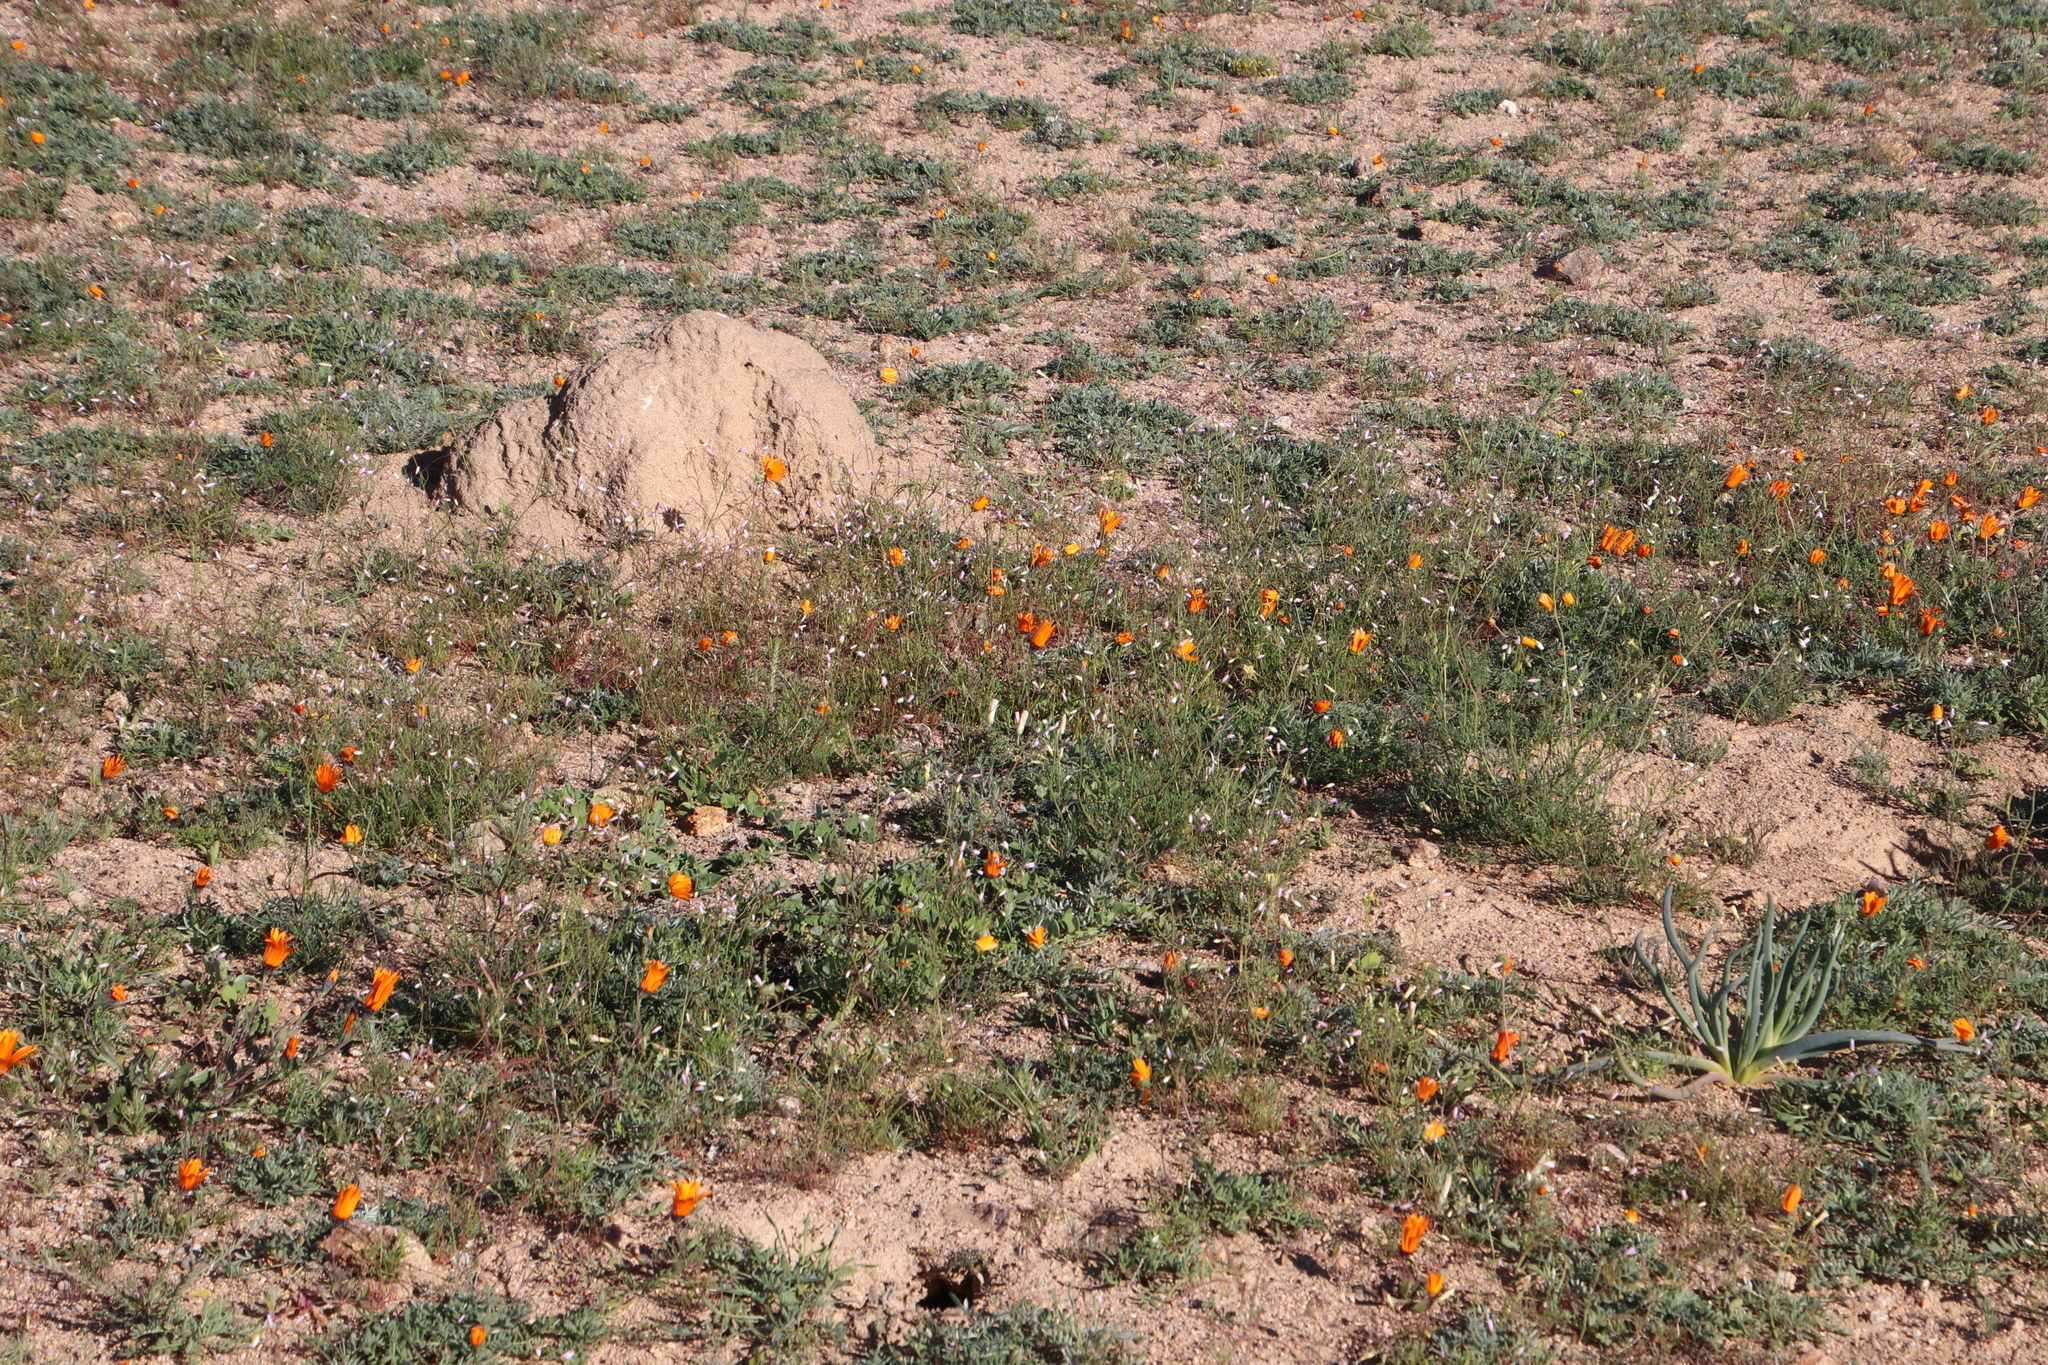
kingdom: Plantae
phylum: Tracheophyta
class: Magnoliopsida
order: Asterales
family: Asteraceae
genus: Dimorphotheca
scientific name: Dimorphotheca sinuata
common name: Glandular cape marigold
